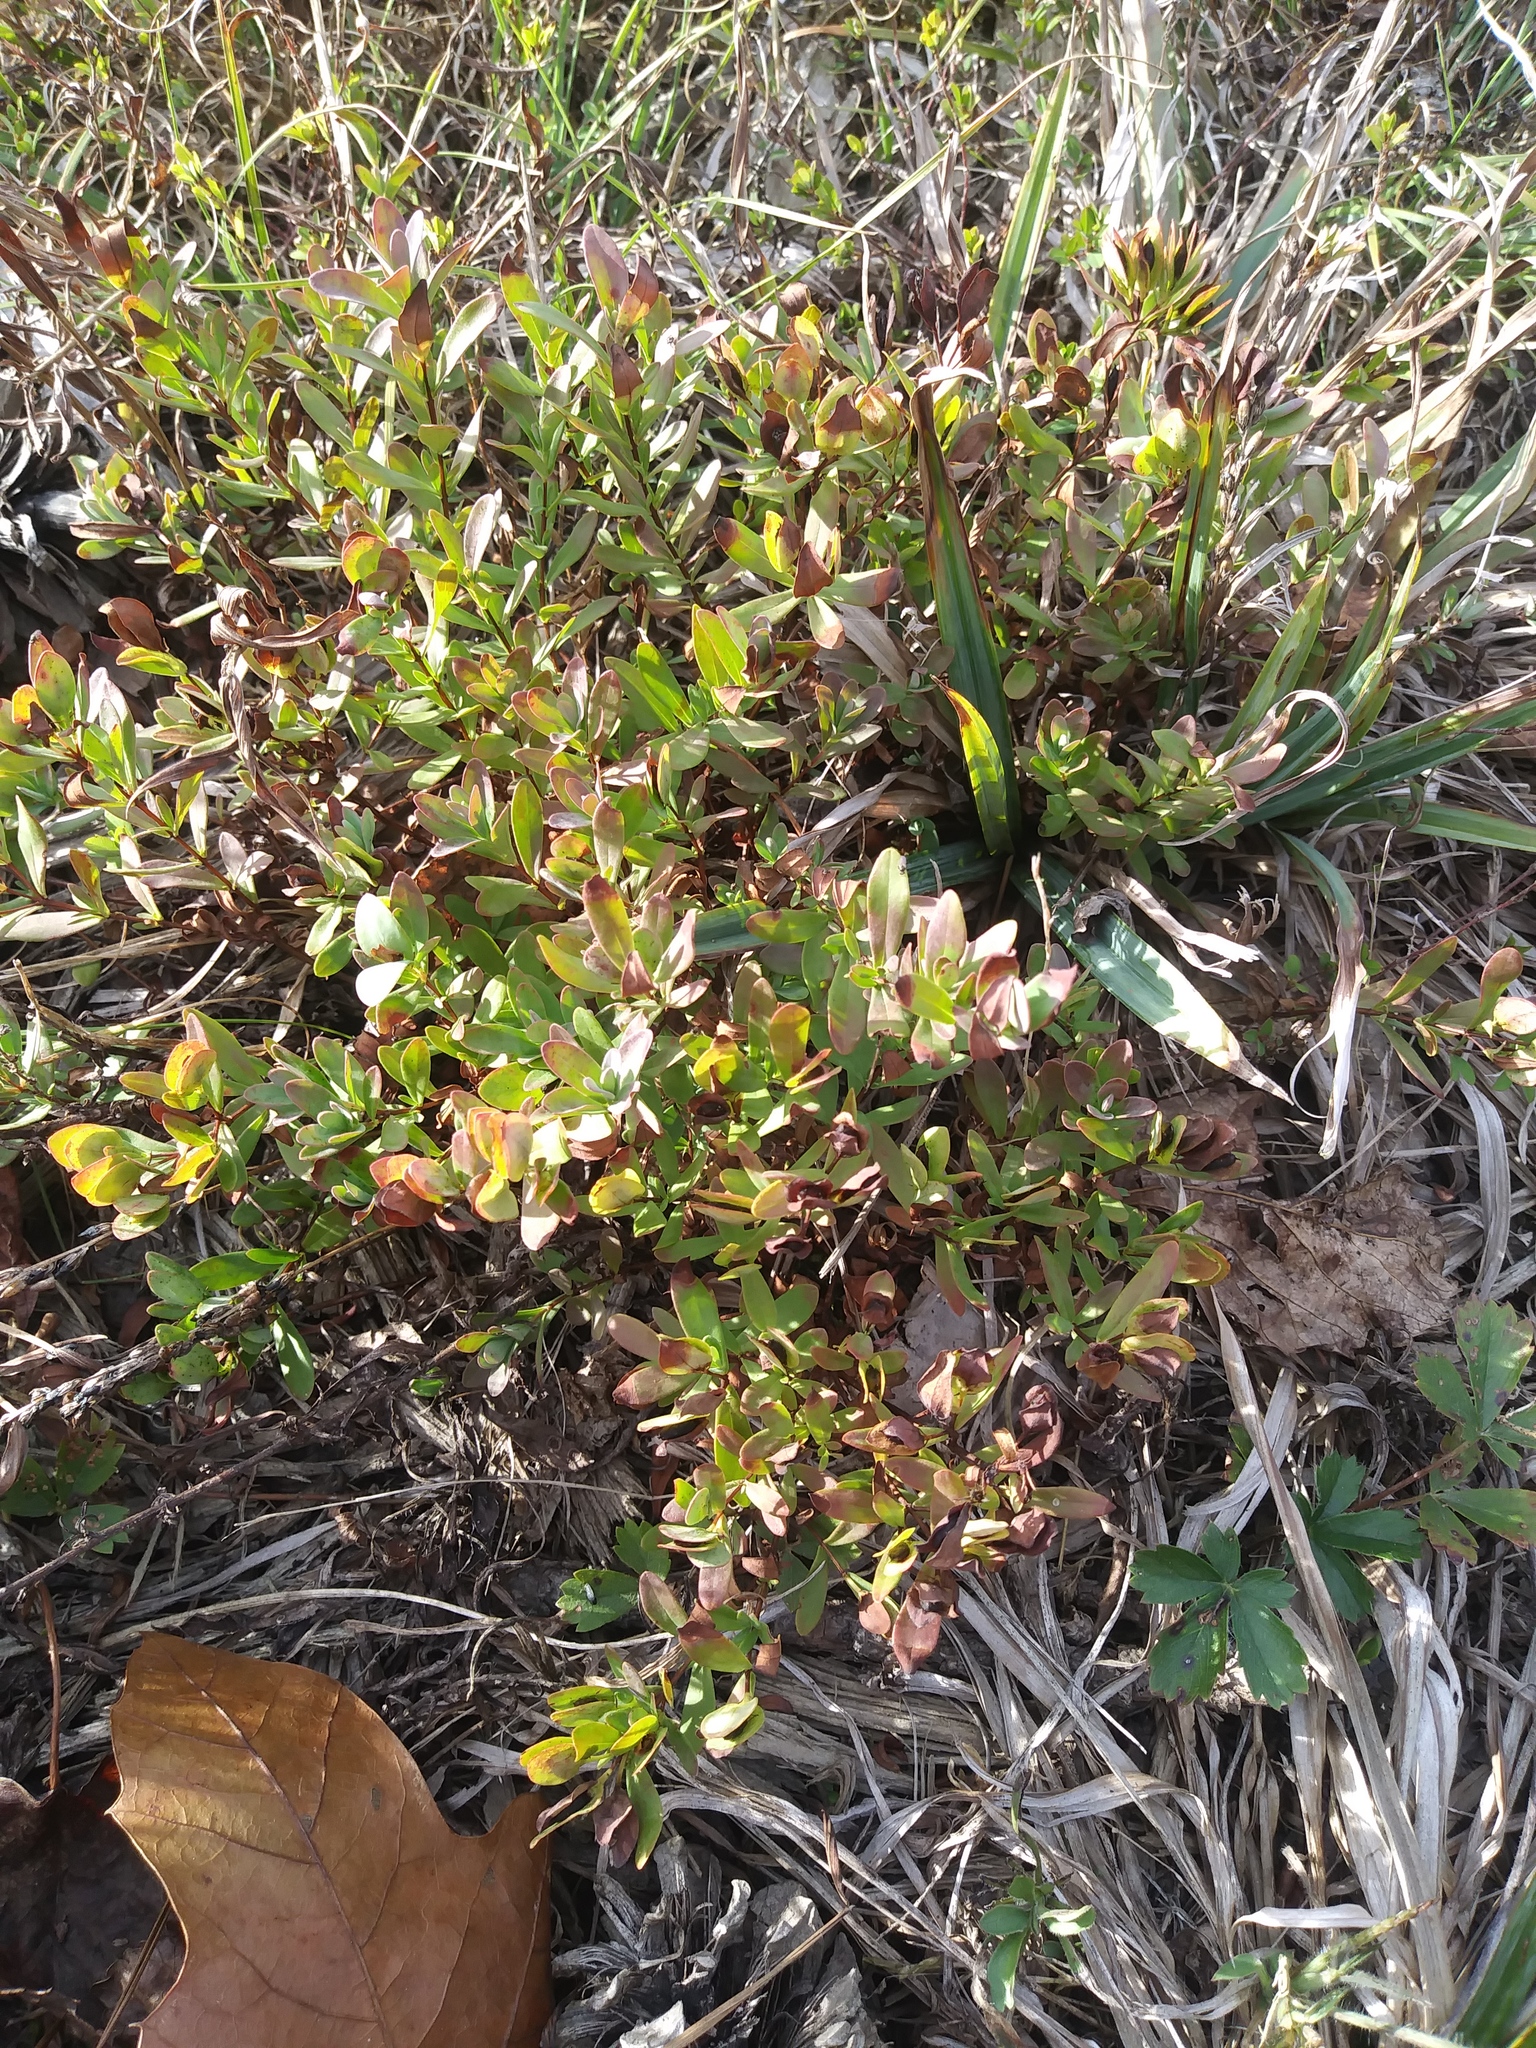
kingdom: Plantae
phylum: Tracheophyta
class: Magnoliopsida
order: Malpighiales
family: Hypericaceae
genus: Hypericum
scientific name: Hypericum hypericoides
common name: St. andrew's cross
